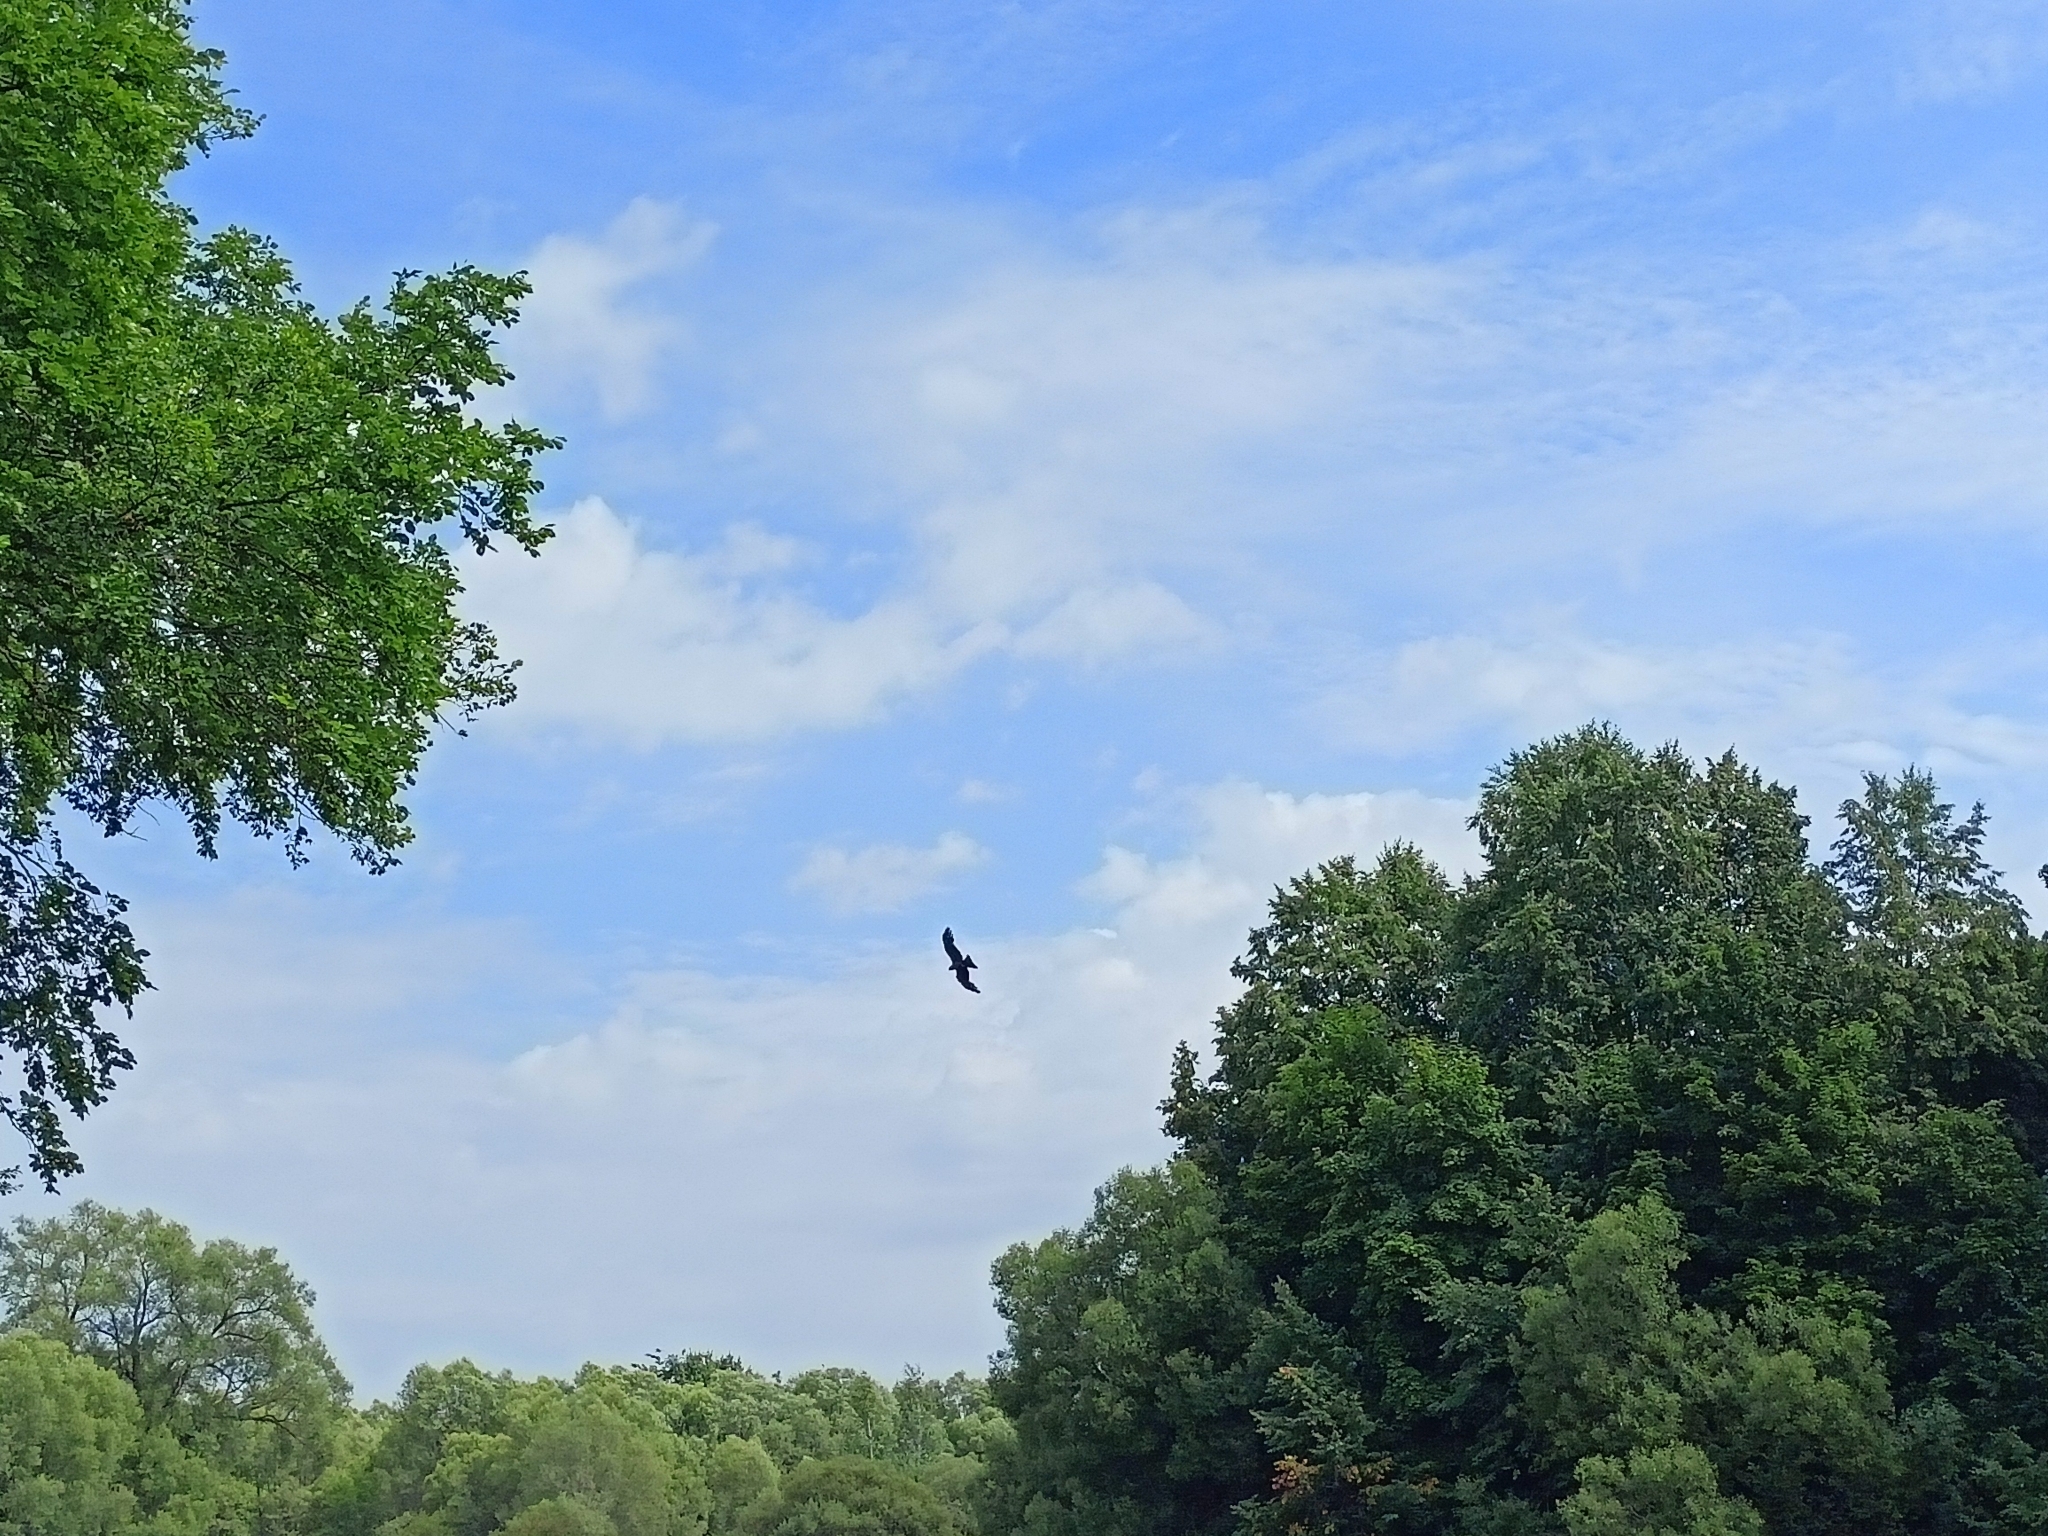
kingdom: Animalia
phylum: Chordata
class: Aves
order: Accipitriformes
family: Accipitridae
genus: Milvus
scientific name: Milvus migrans
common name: Black kite
